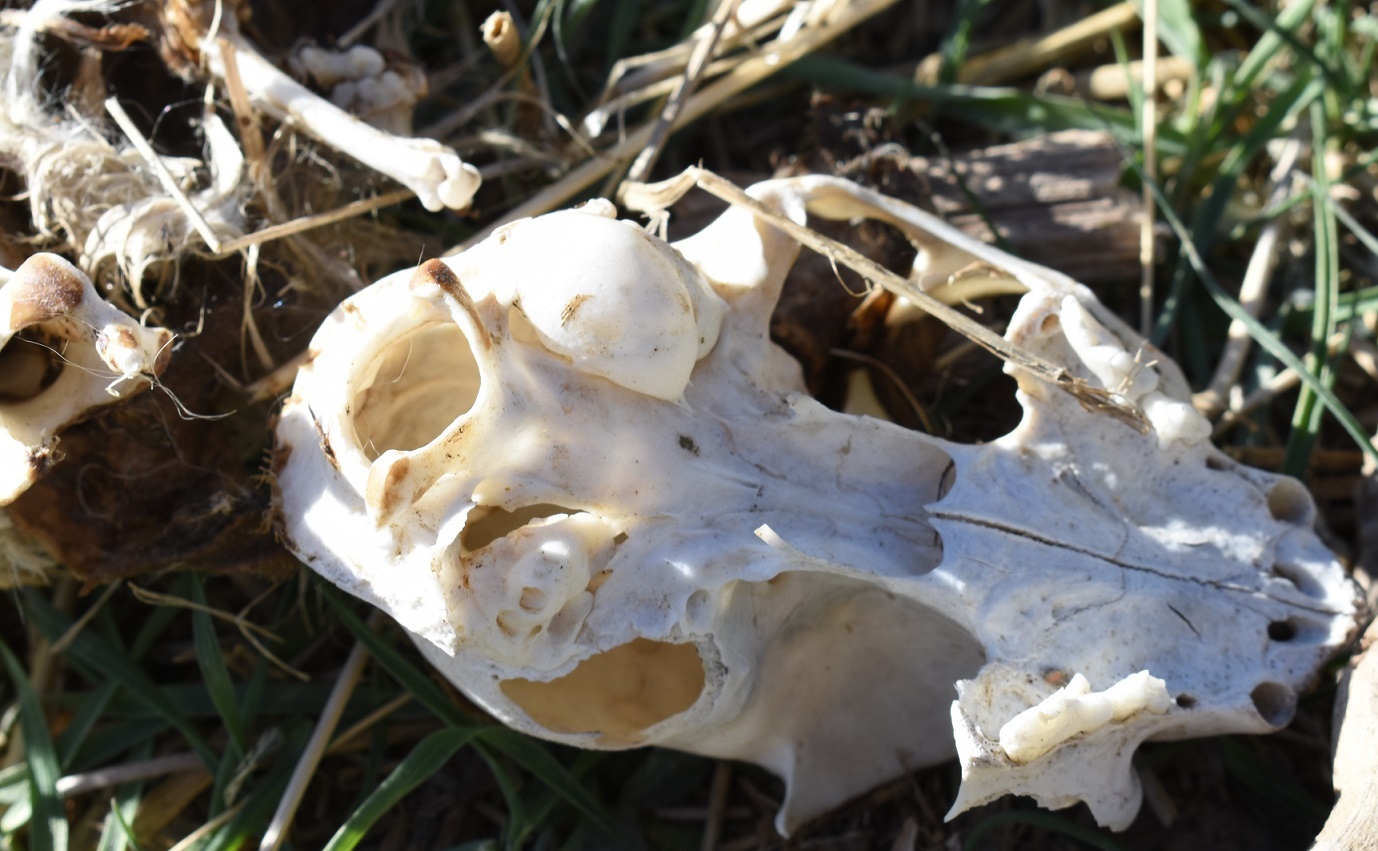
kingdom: Animalia
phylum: Chordata
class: Mammalia
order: Carnivora
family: Felidae
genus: Felis
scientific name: Felis catus
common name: Domestic cat
